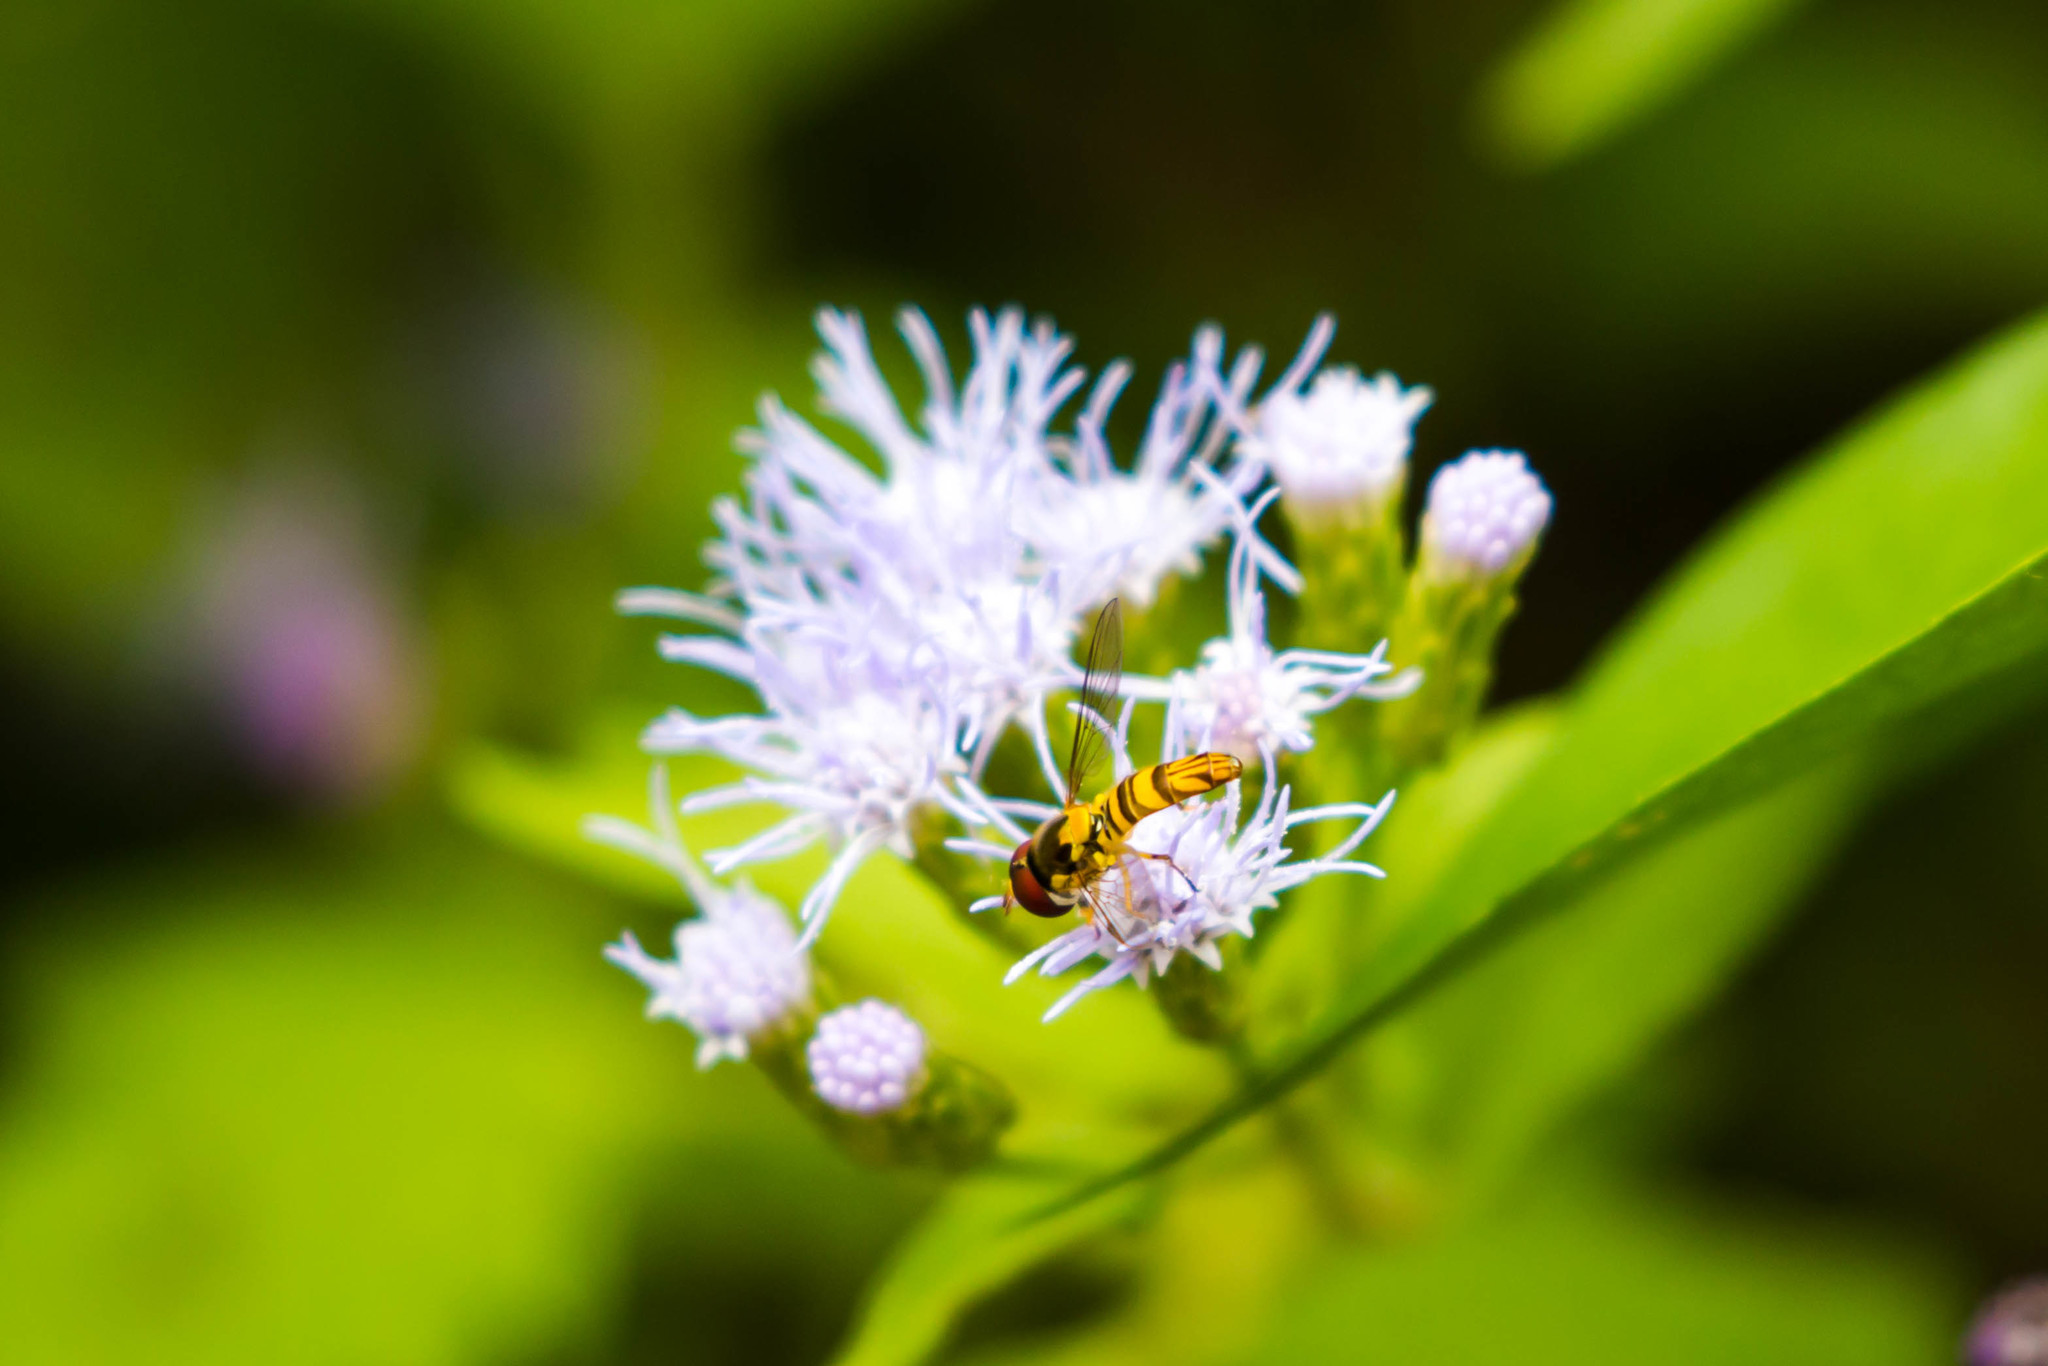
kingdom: Animalia
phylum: Arthropoda
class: Insecta
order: Diptera
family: Syrphidae
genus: Allograpta
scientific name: Allograpta obliqua
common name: Common oblique syrphid
